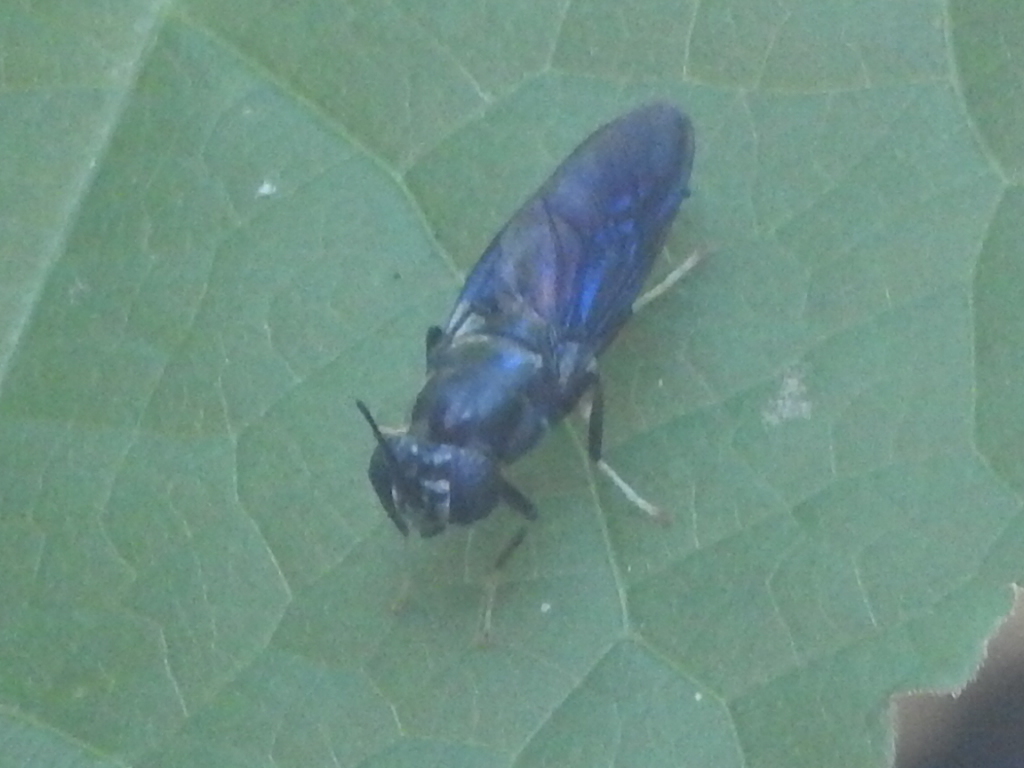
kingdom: Animalia
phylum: Arthropoda
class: Insecta
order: Diptera
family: Stratiomyidae
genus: Hermetia
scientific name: Hermetia illucens
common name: Black soldier fly
